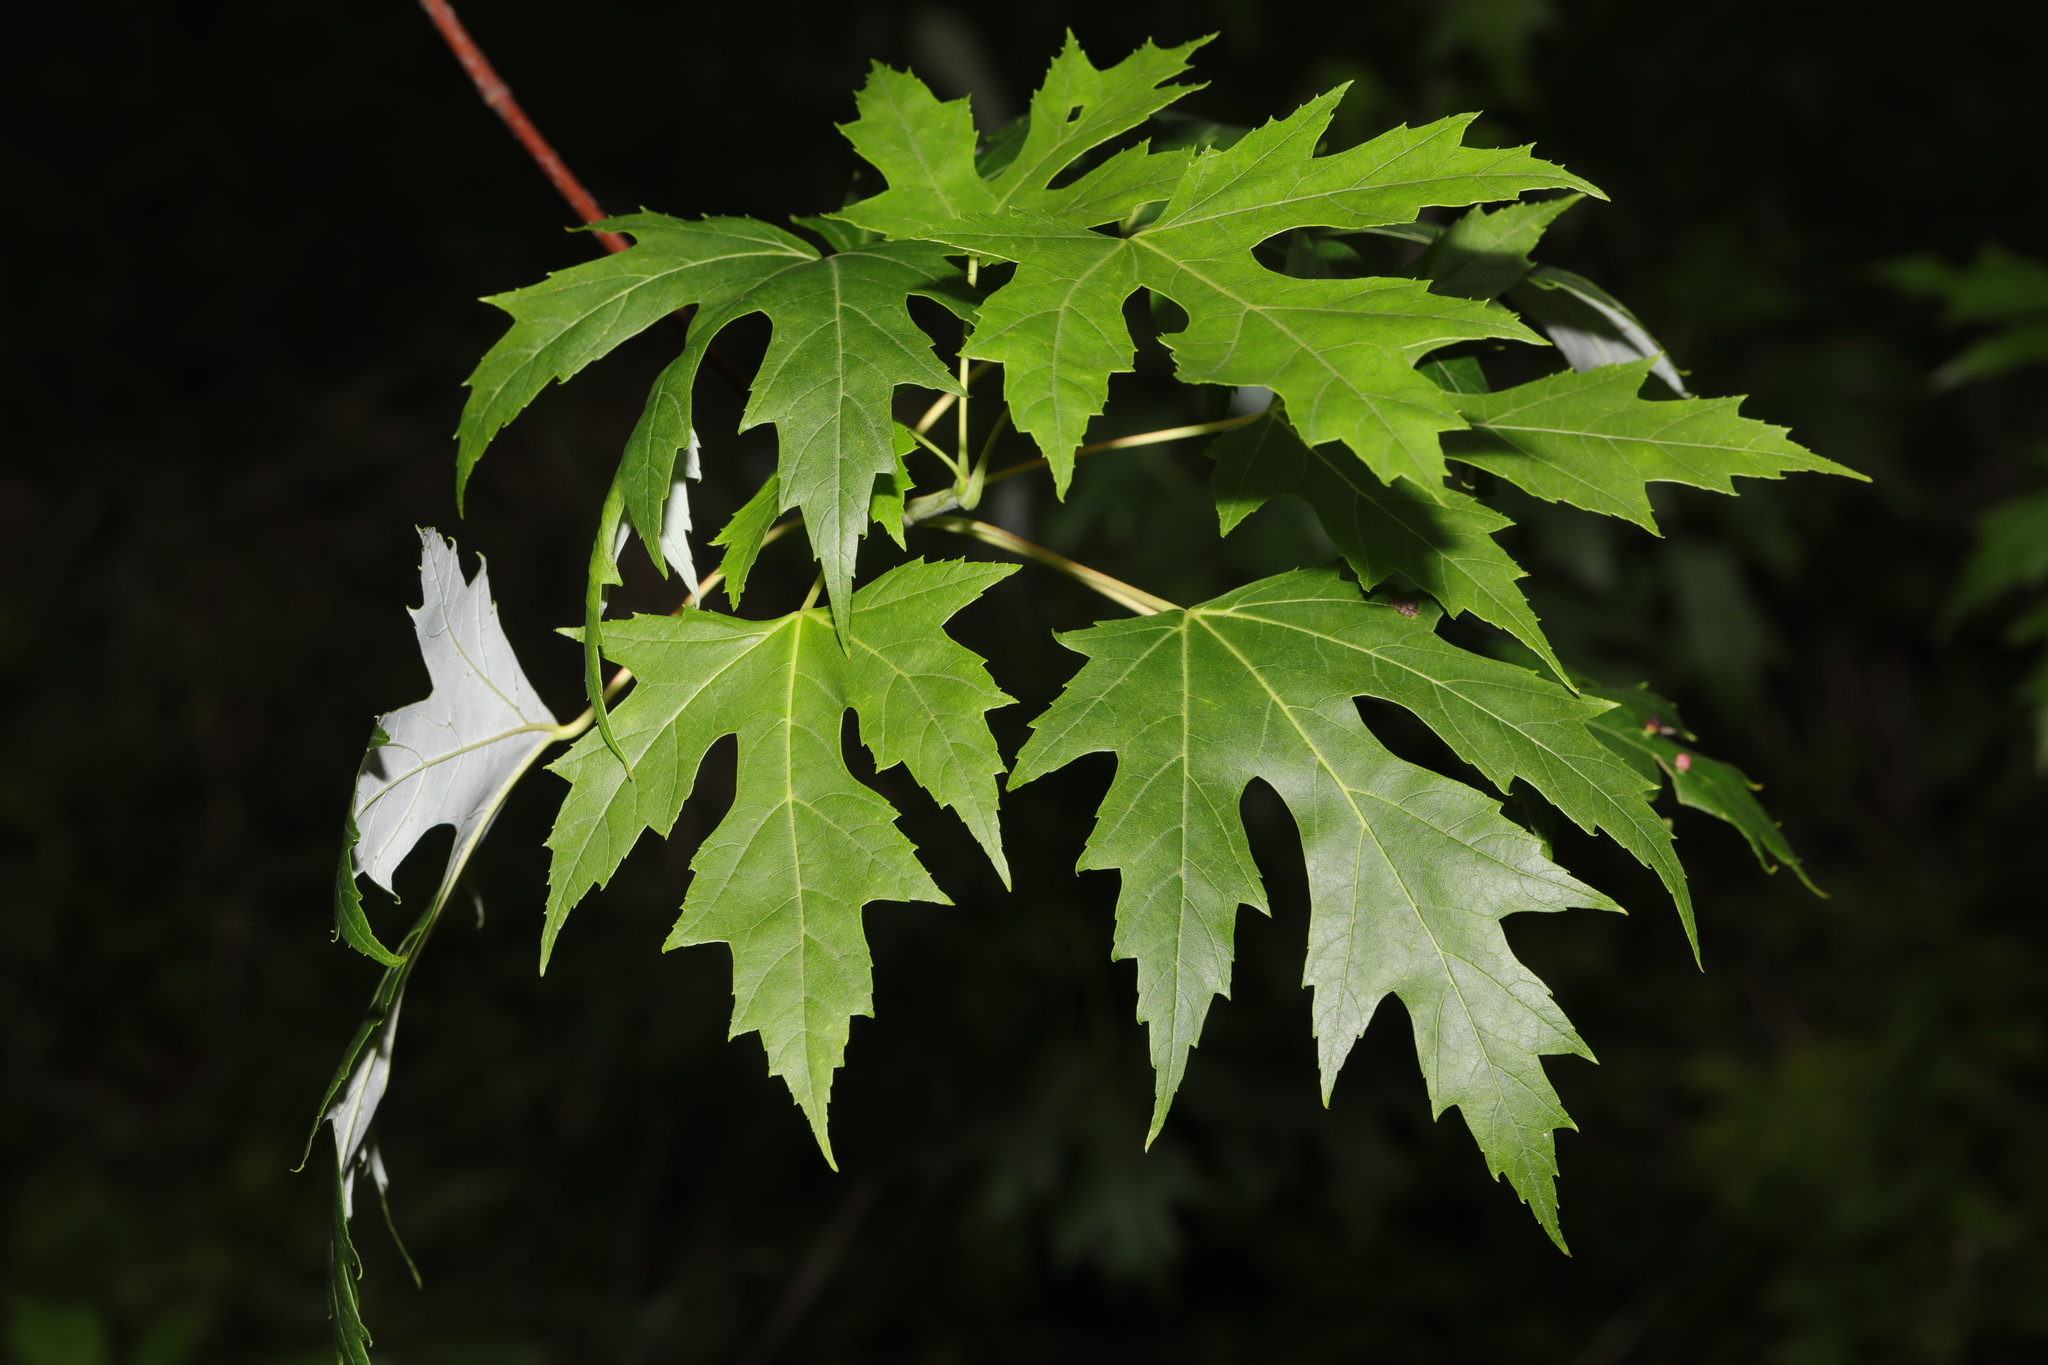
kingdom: Plantae
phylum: Tracheophyta
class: Magnoliopsida
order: Sapindales
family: Sapindaceae
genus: Acer
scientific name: Acer saccharinum
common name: Silver maple
